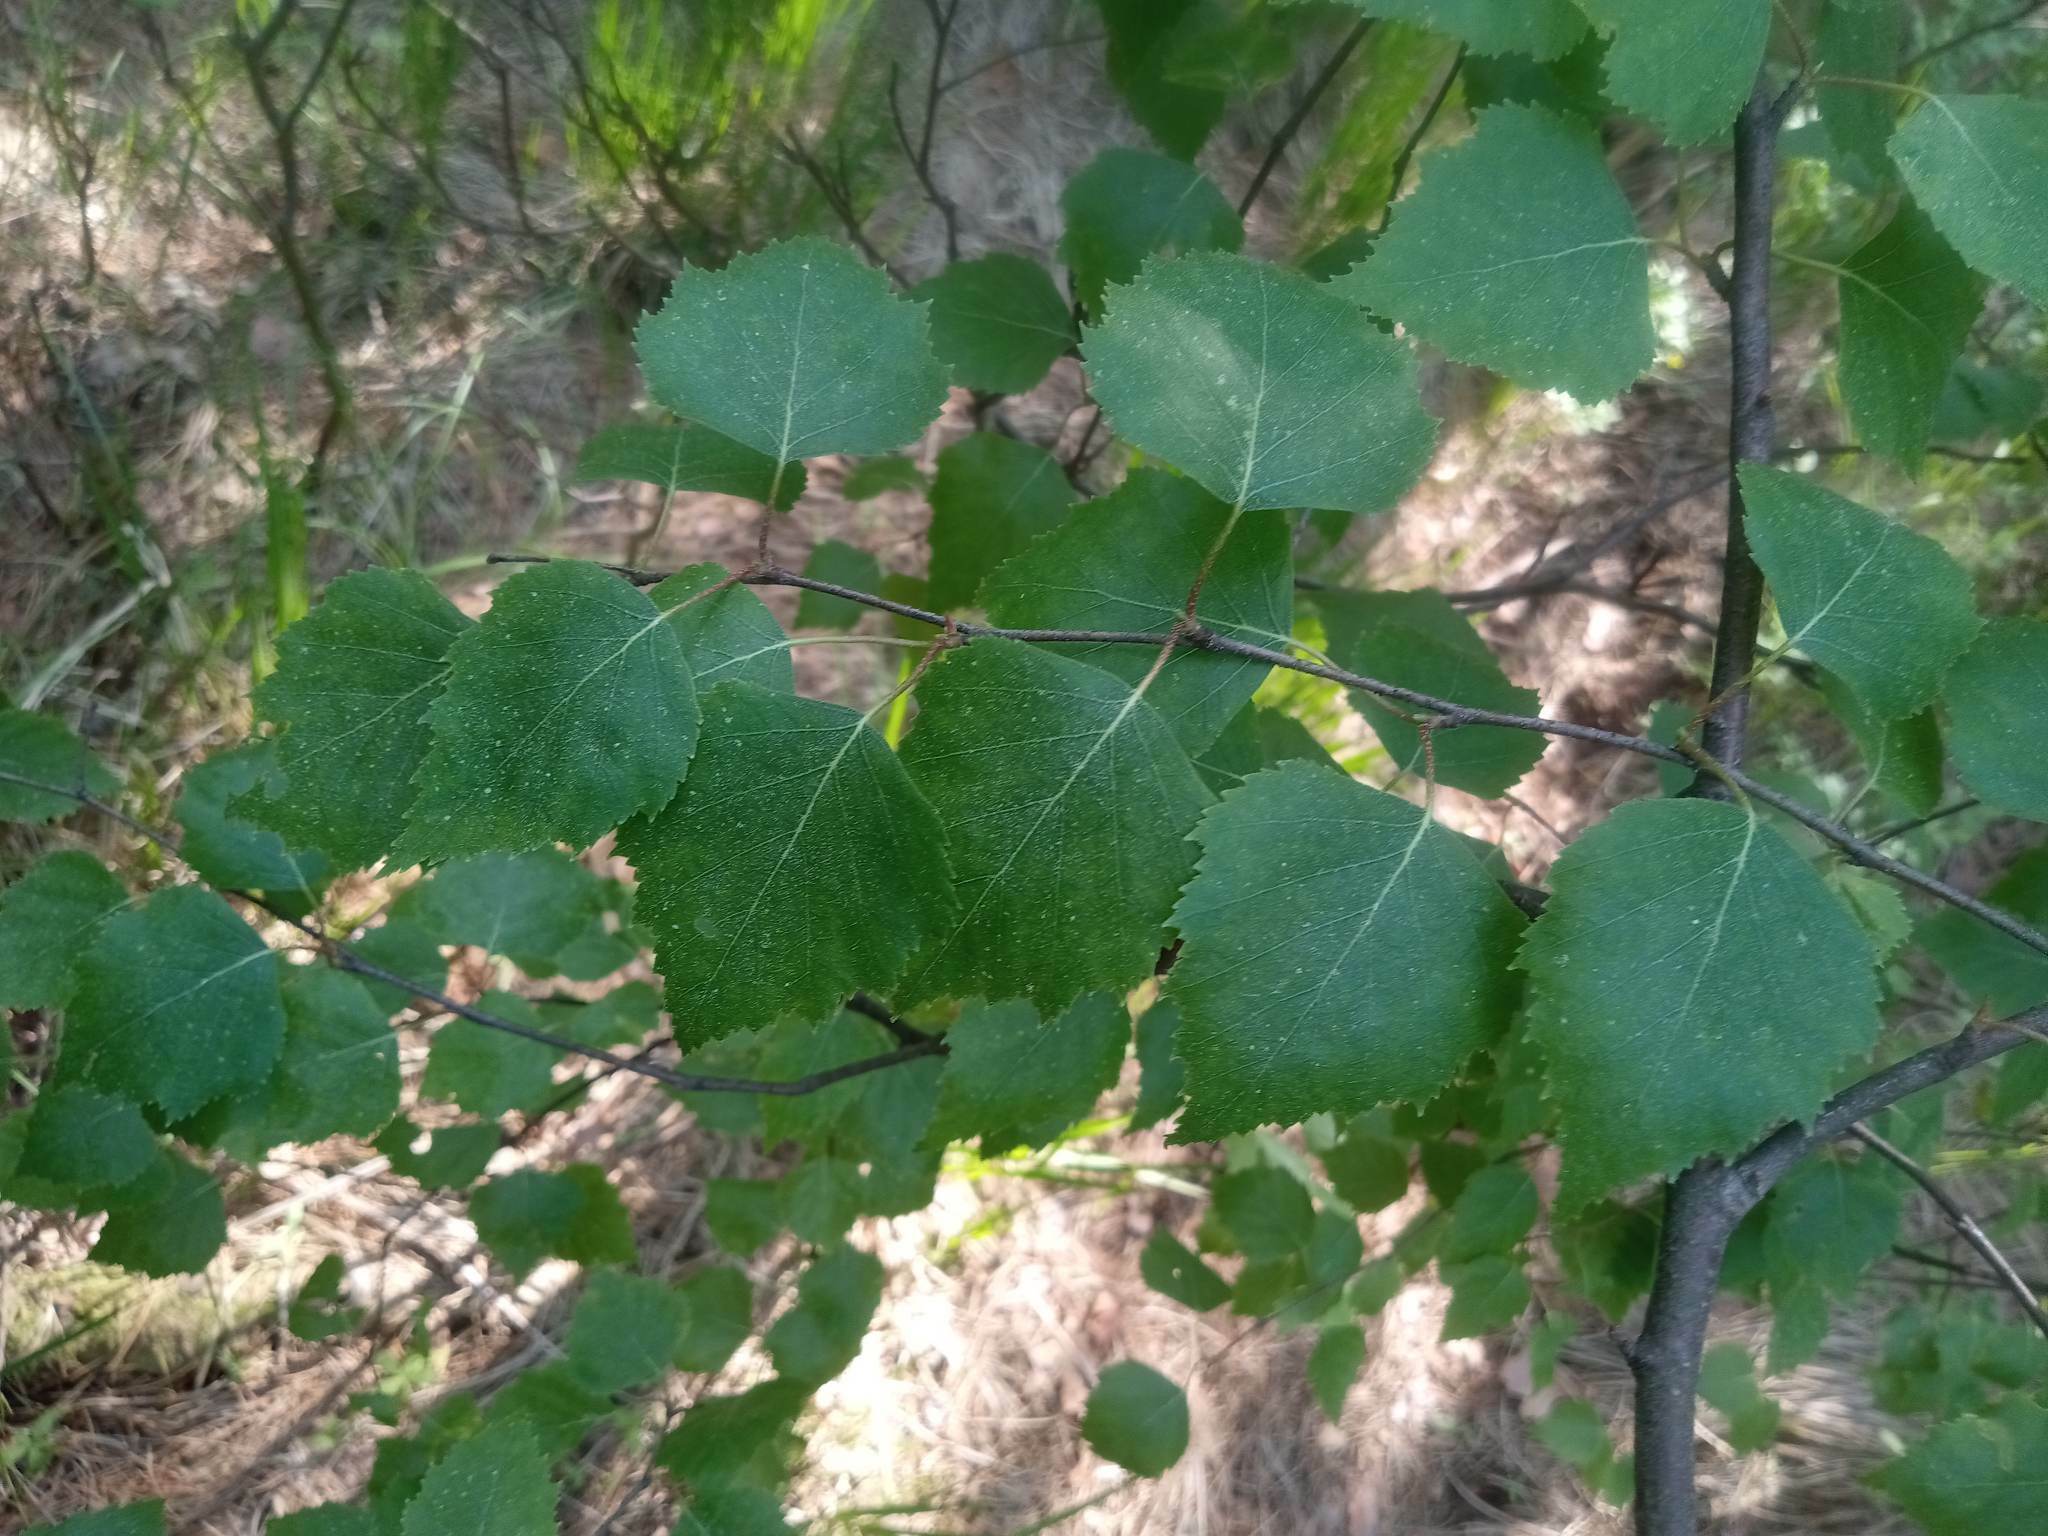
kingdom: Plantae
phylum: Tracheophyta
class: Magnoliopsida
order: Fagales
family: Betulaceae
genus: Betula
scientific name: Betula pendula
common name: Silver birch
